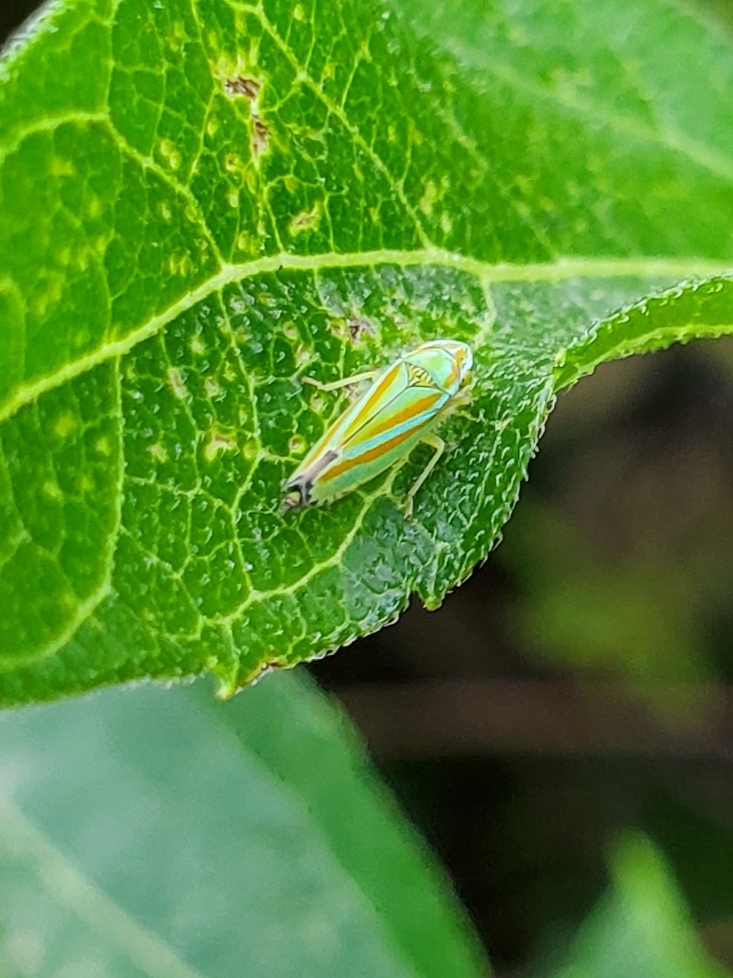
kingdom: Animalia
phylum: Arthropoda
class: Insecta
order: Hemiptera
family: Cicadellidae
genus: Graphocephala
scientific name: Graphocephala versuta
